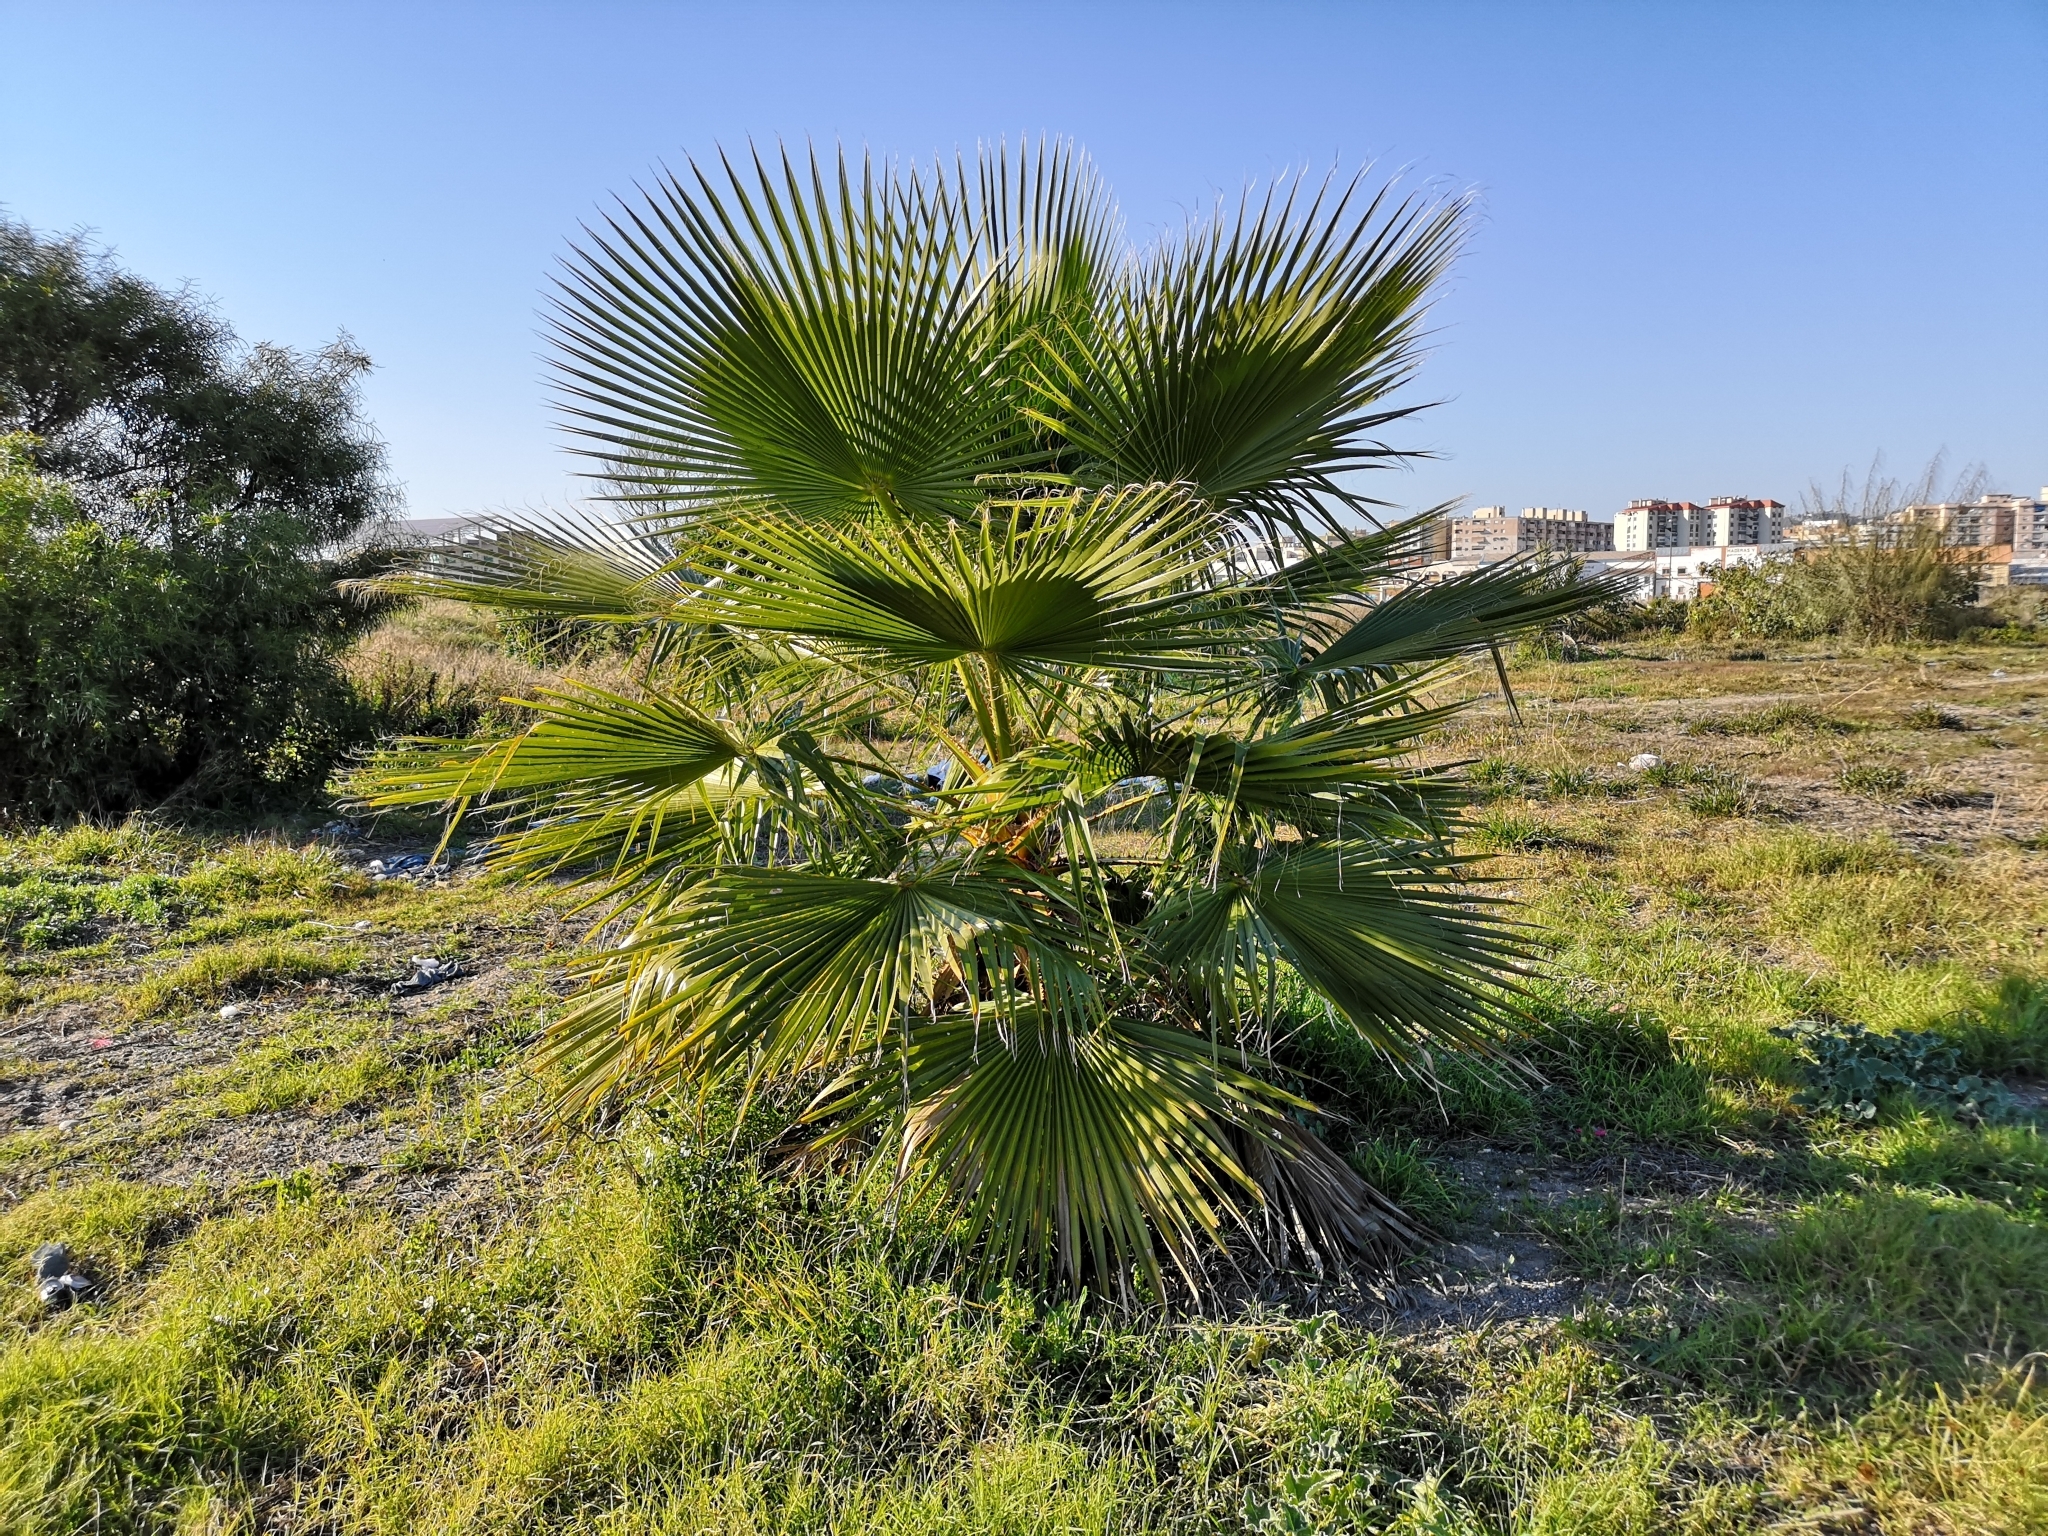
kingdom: Plantae
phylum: Tracheophyta
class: Liliopsida
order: Arecales
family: Arecaceae
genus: Washingtonia
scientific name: Washingtonia robusta
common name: Mexican fan palm
